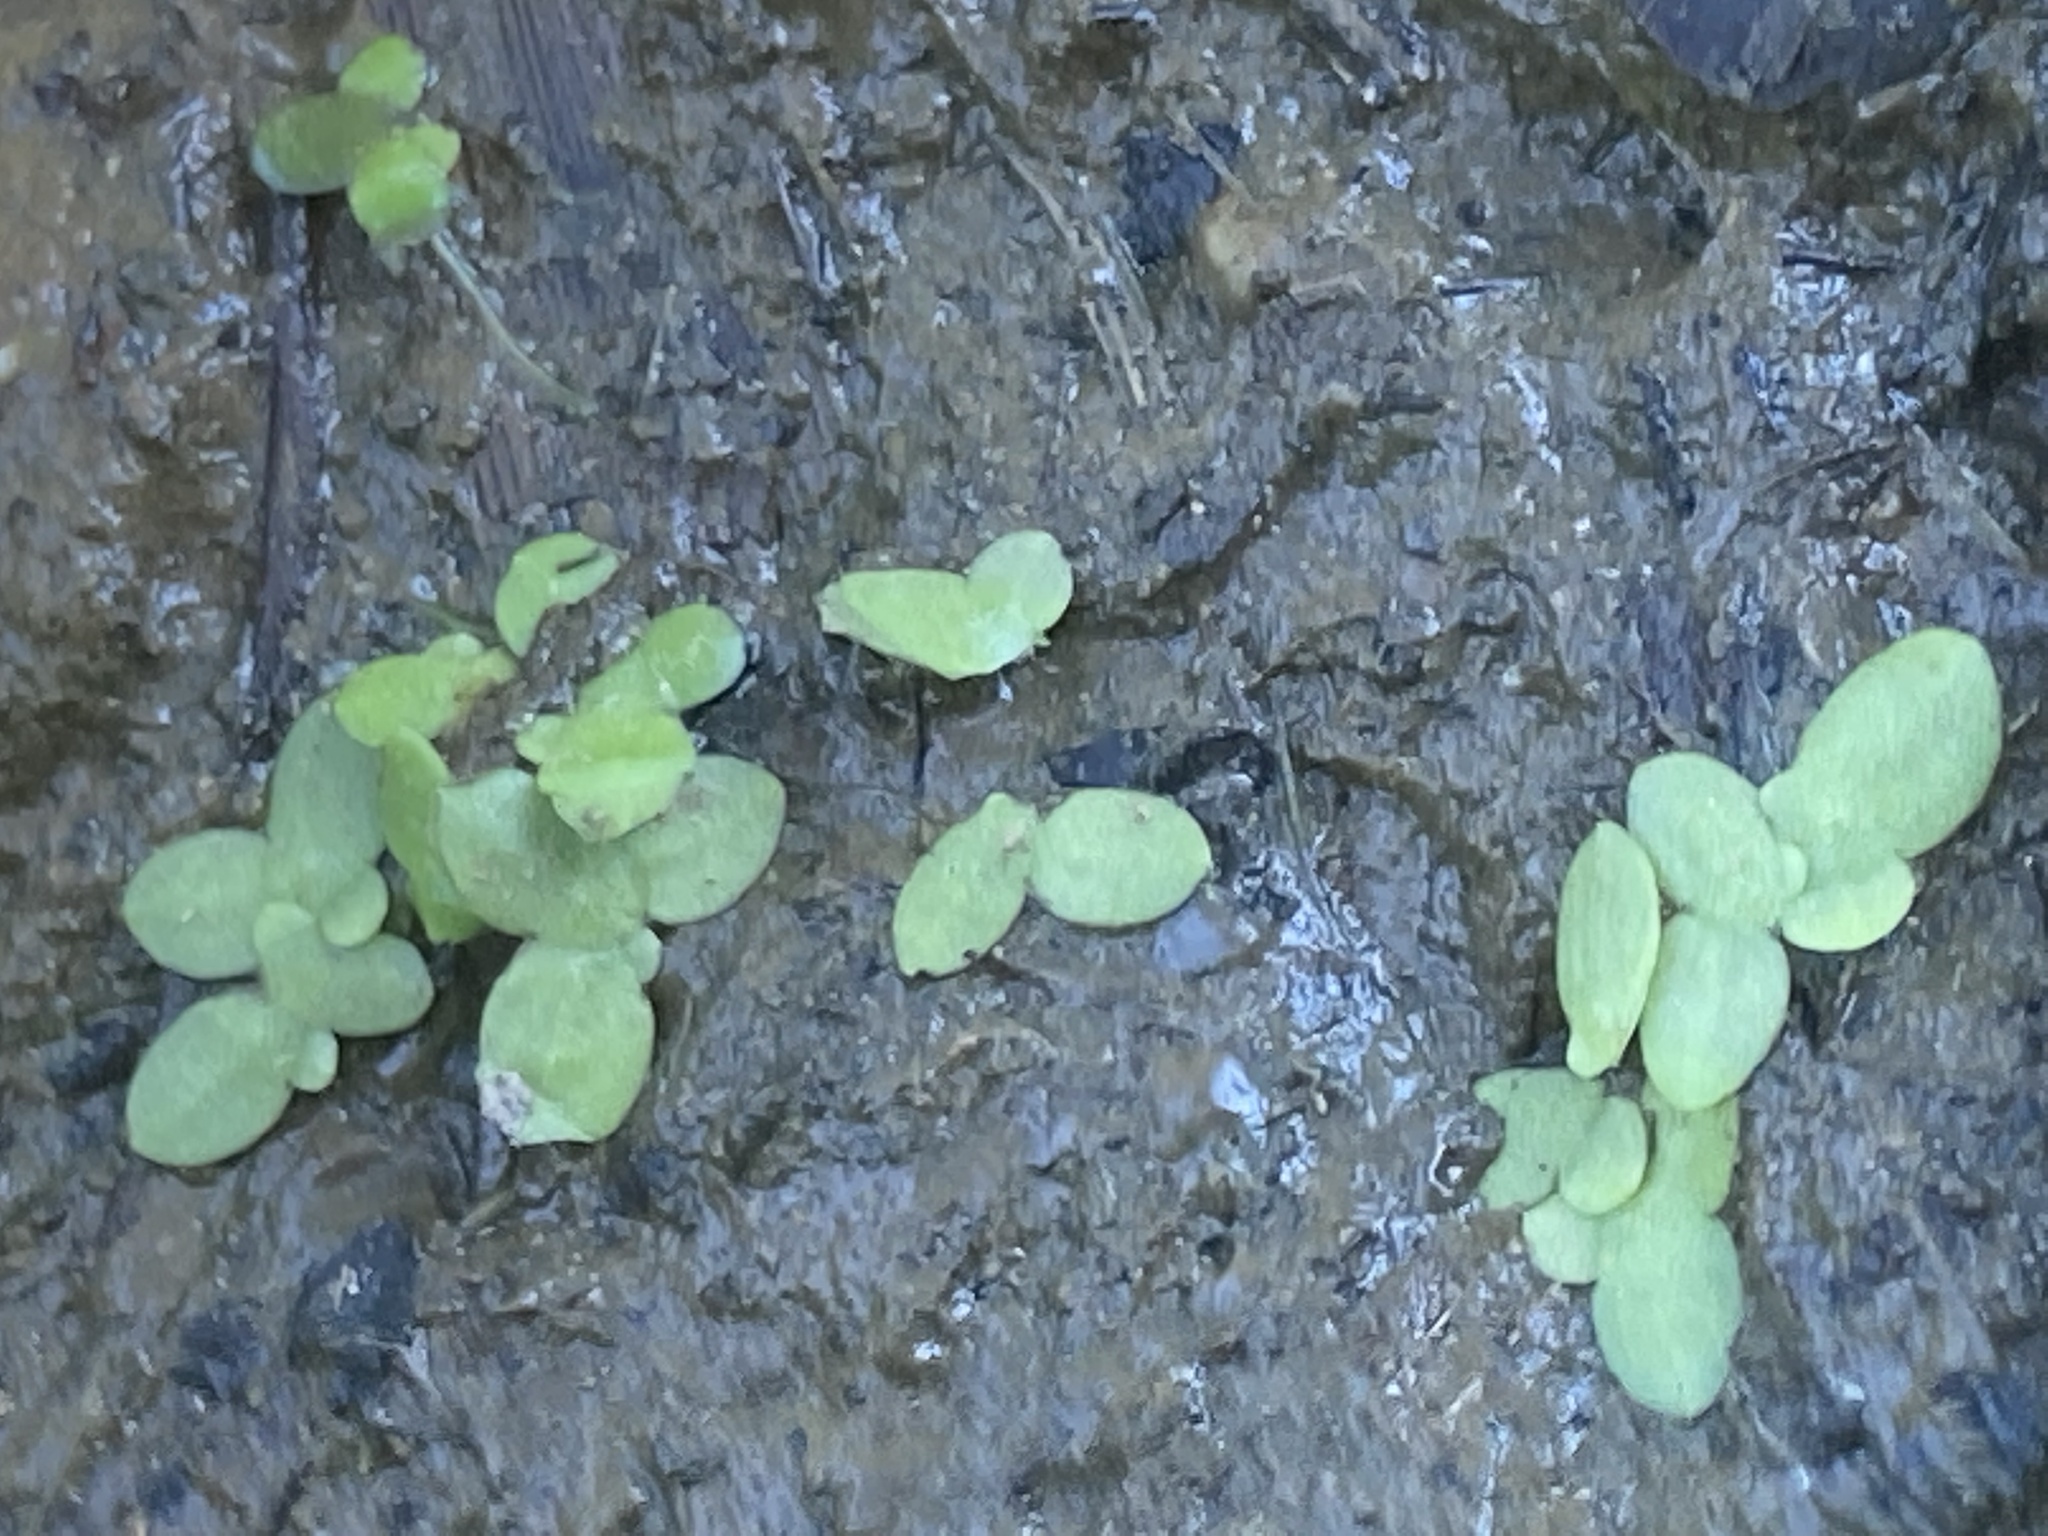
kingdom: Plantae
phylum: Tracheophyta
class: Liliopsida
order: Alismatales
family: Araceae
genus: Lemna
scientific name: Lemna minuta
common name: Least duckweed
